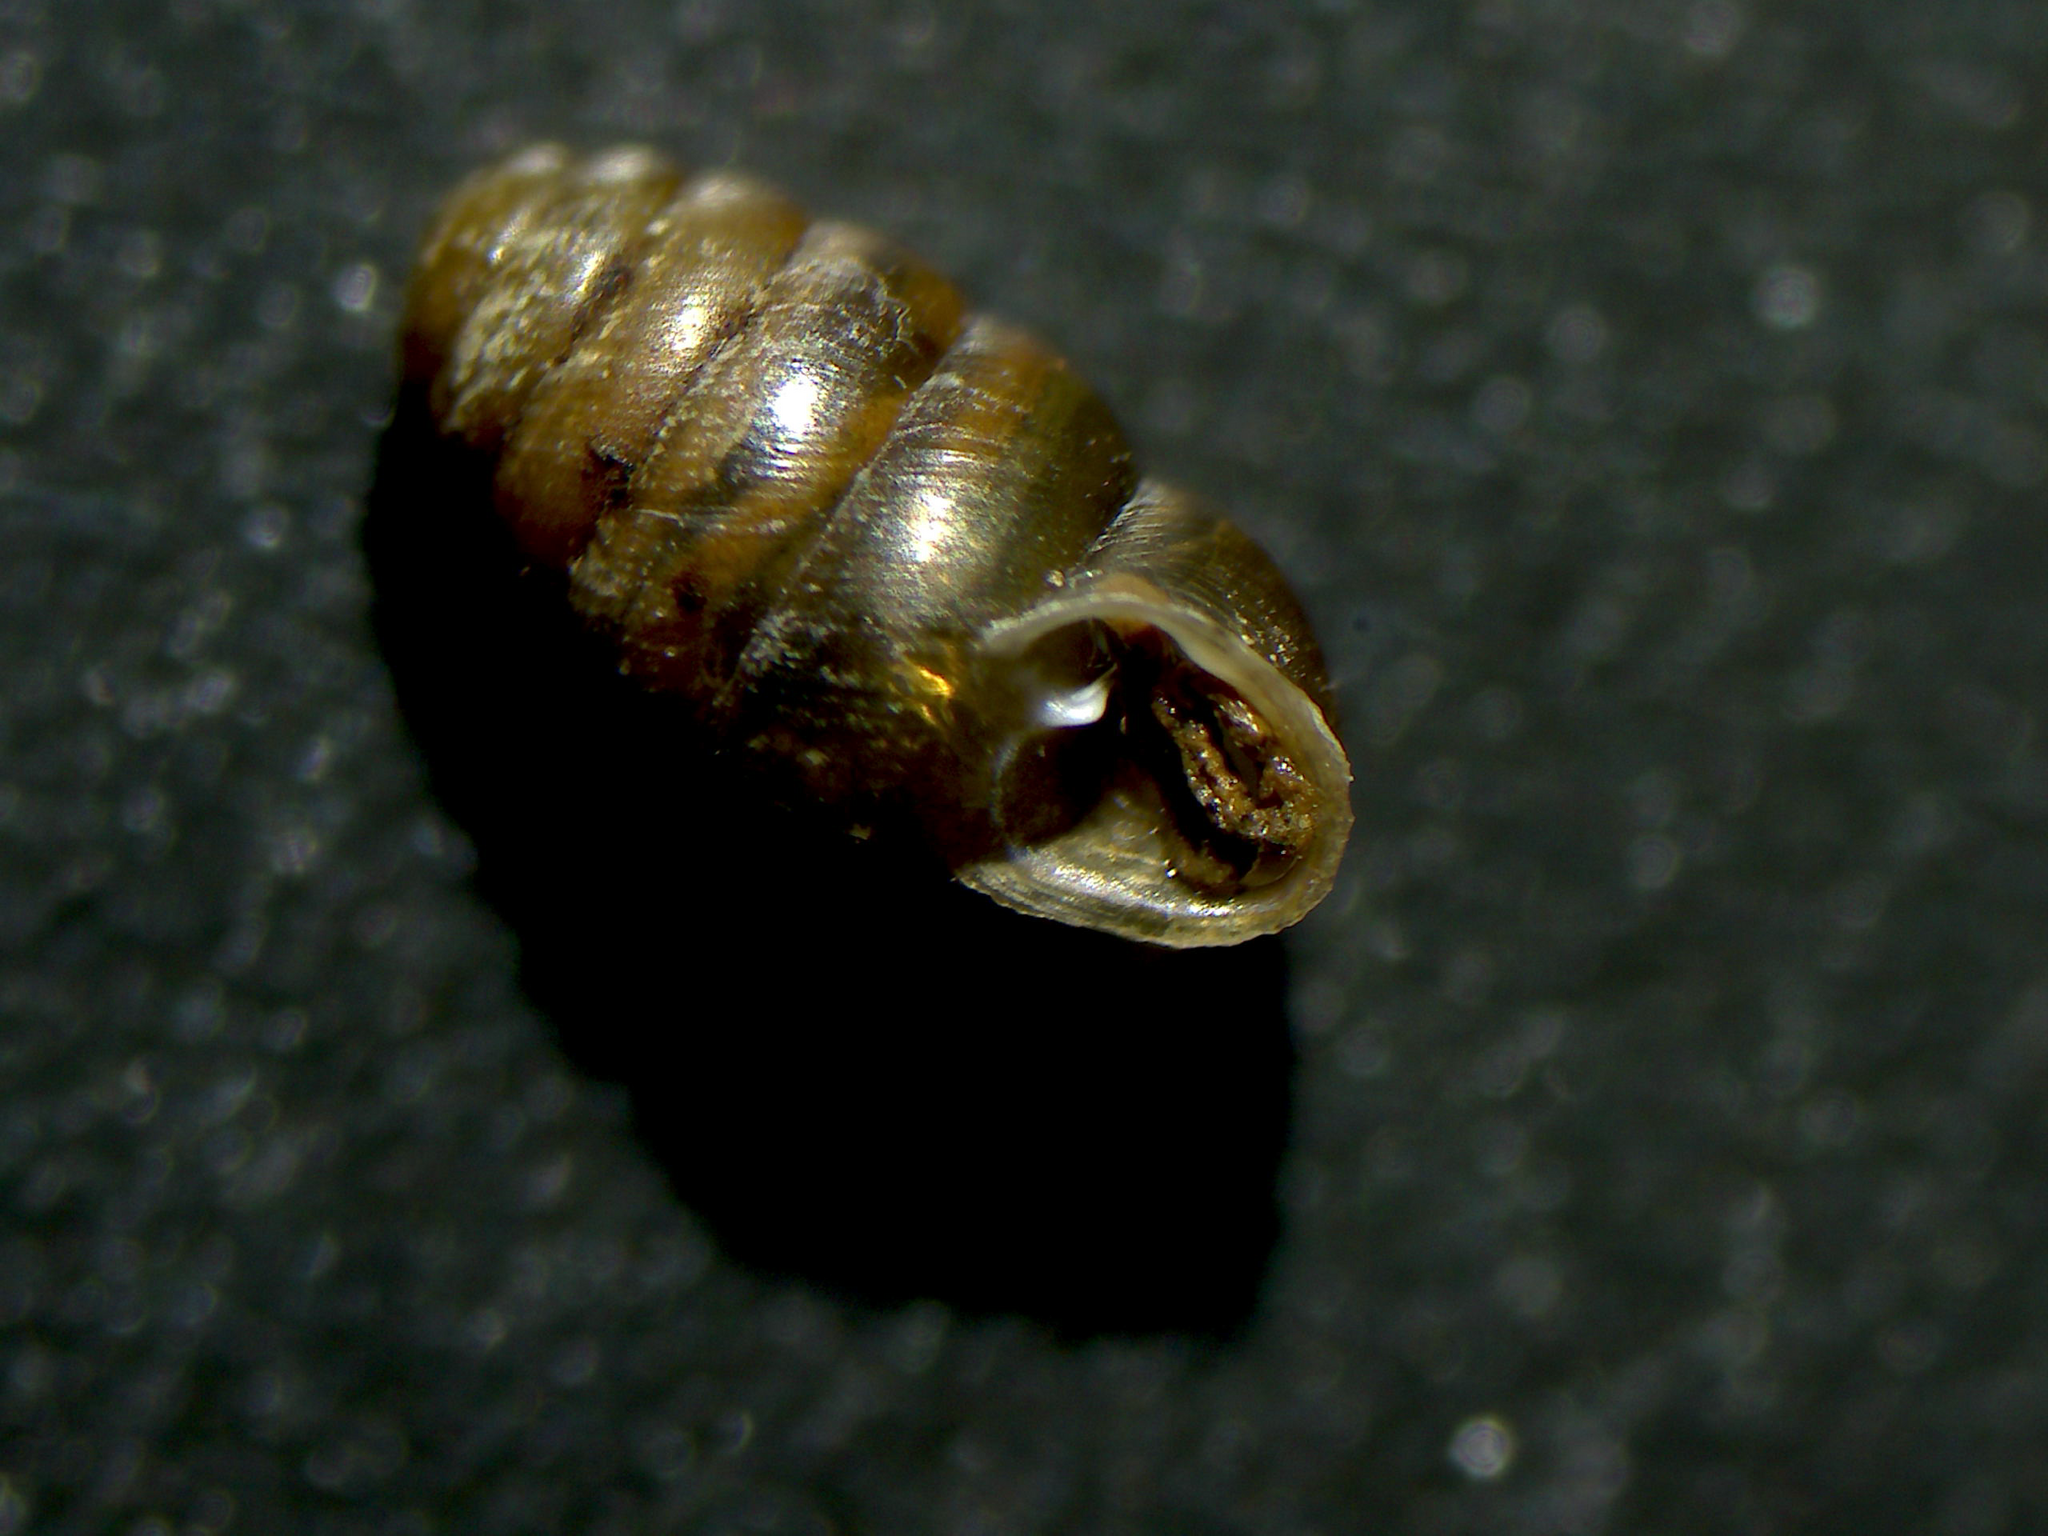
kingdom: Animalia
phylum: Mollusca
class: Gastropoda
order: Stylommatophora
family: Lauriidae
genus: Lauria
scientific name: Lauria cylindracea
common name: Common chrysalis snail
